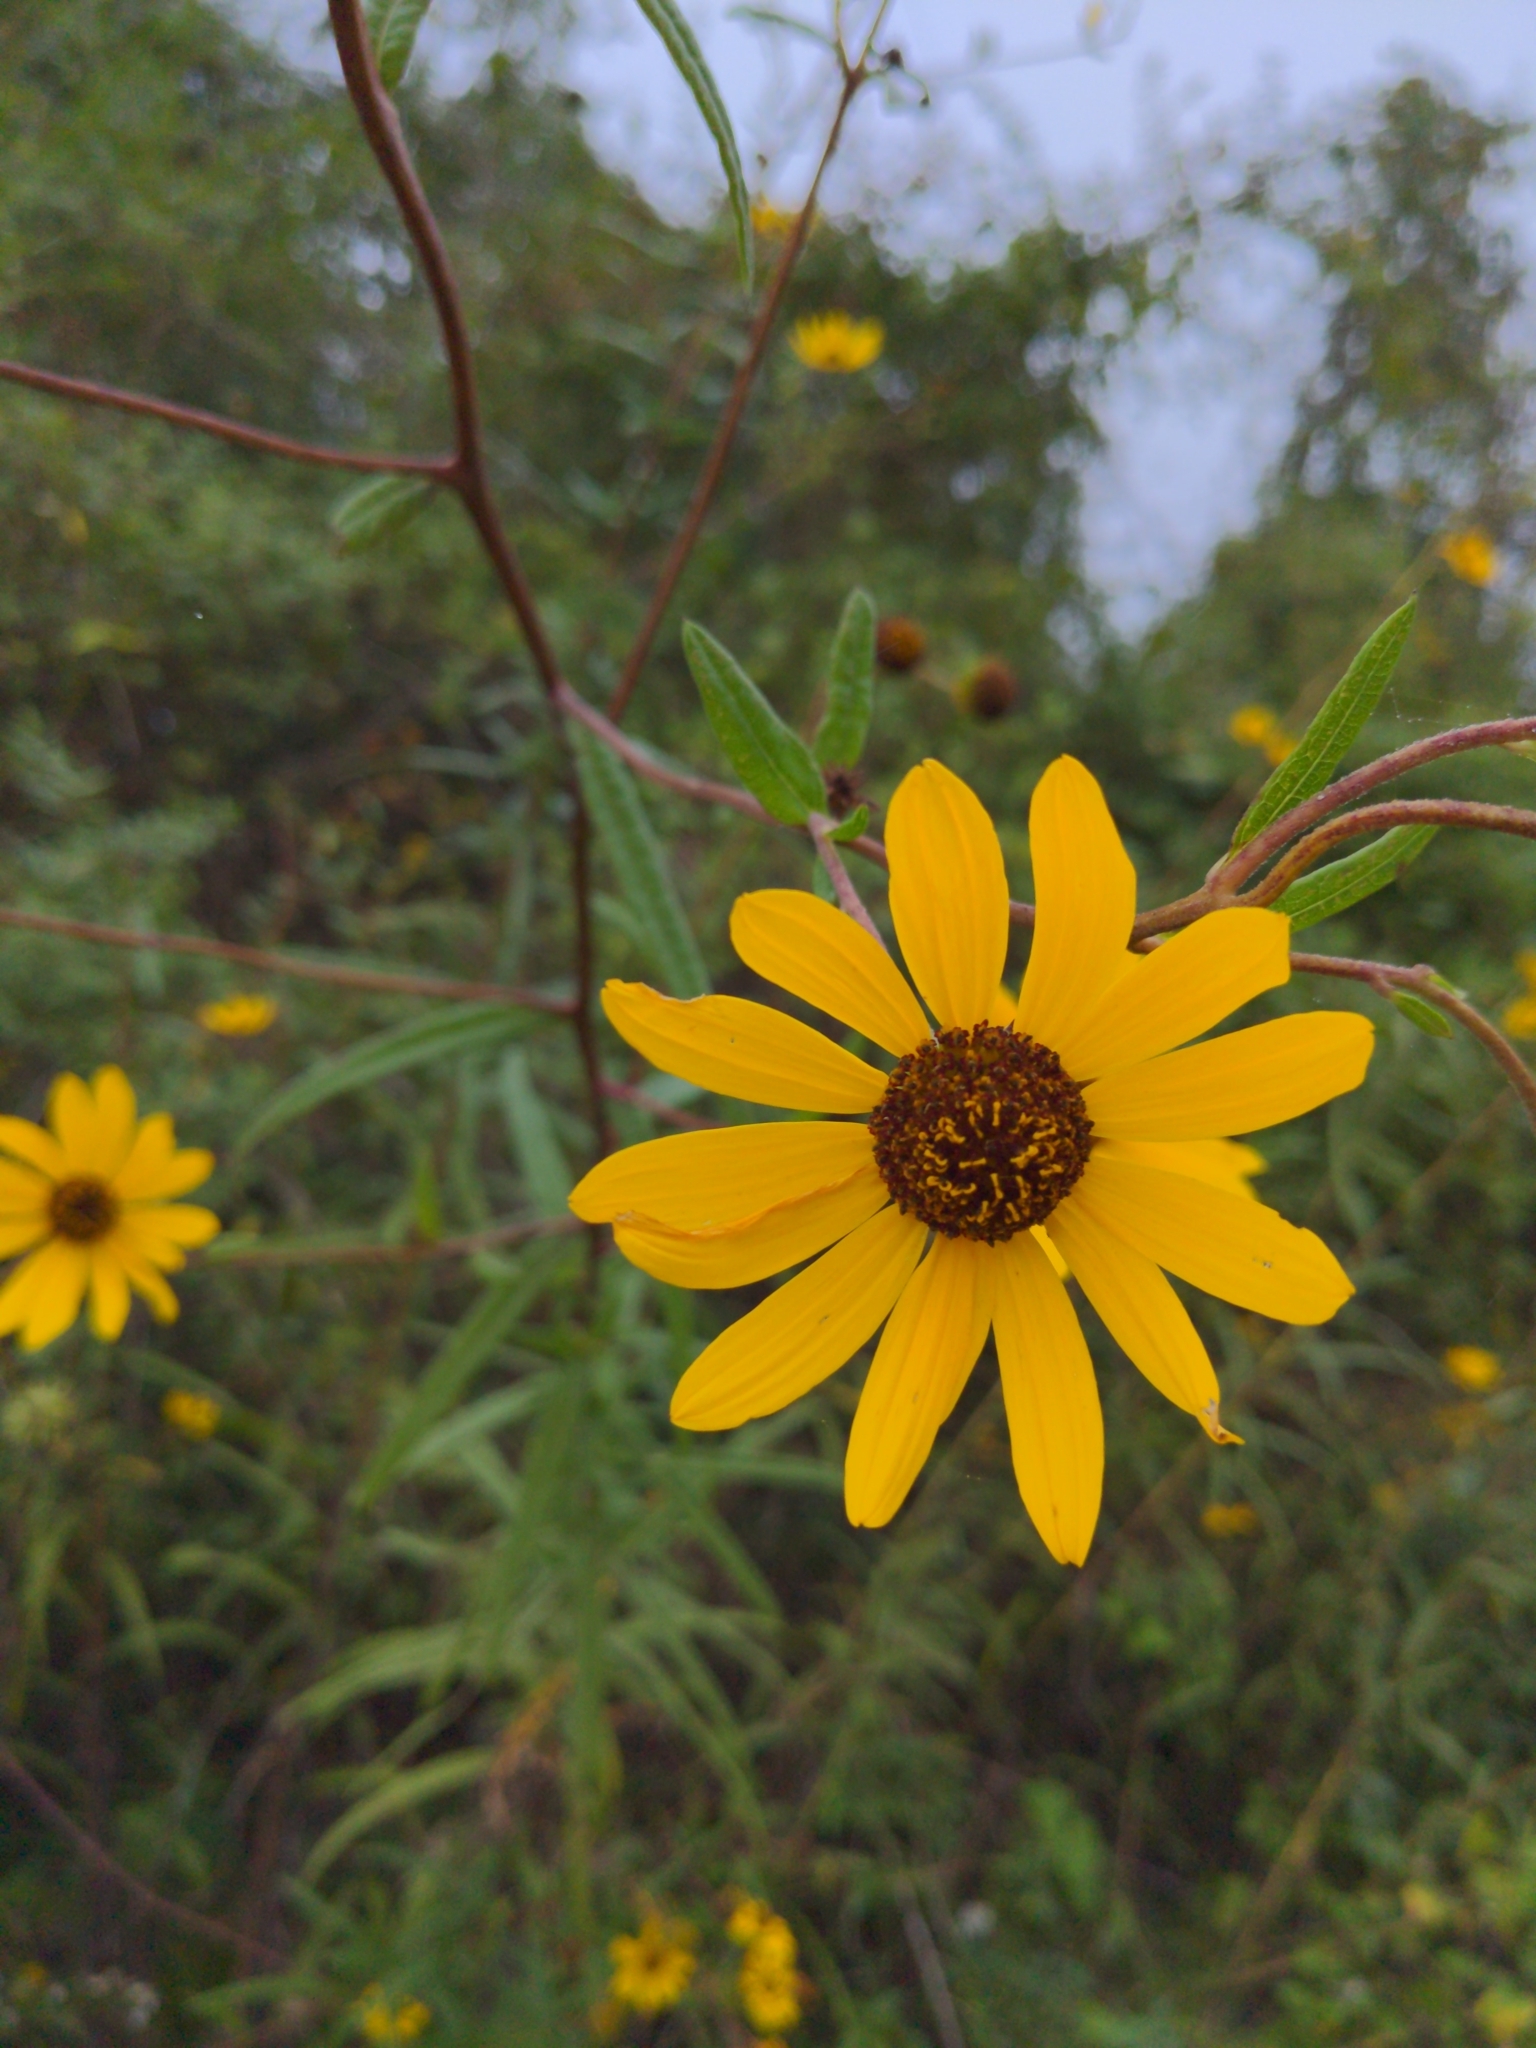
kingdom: Plantae
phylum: Tracheophyta
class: Magnoliopsida
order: Asterales
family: Asteraceae
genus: Helianthus
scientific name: Helianthus angustifolius
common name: Swamp sunflower
